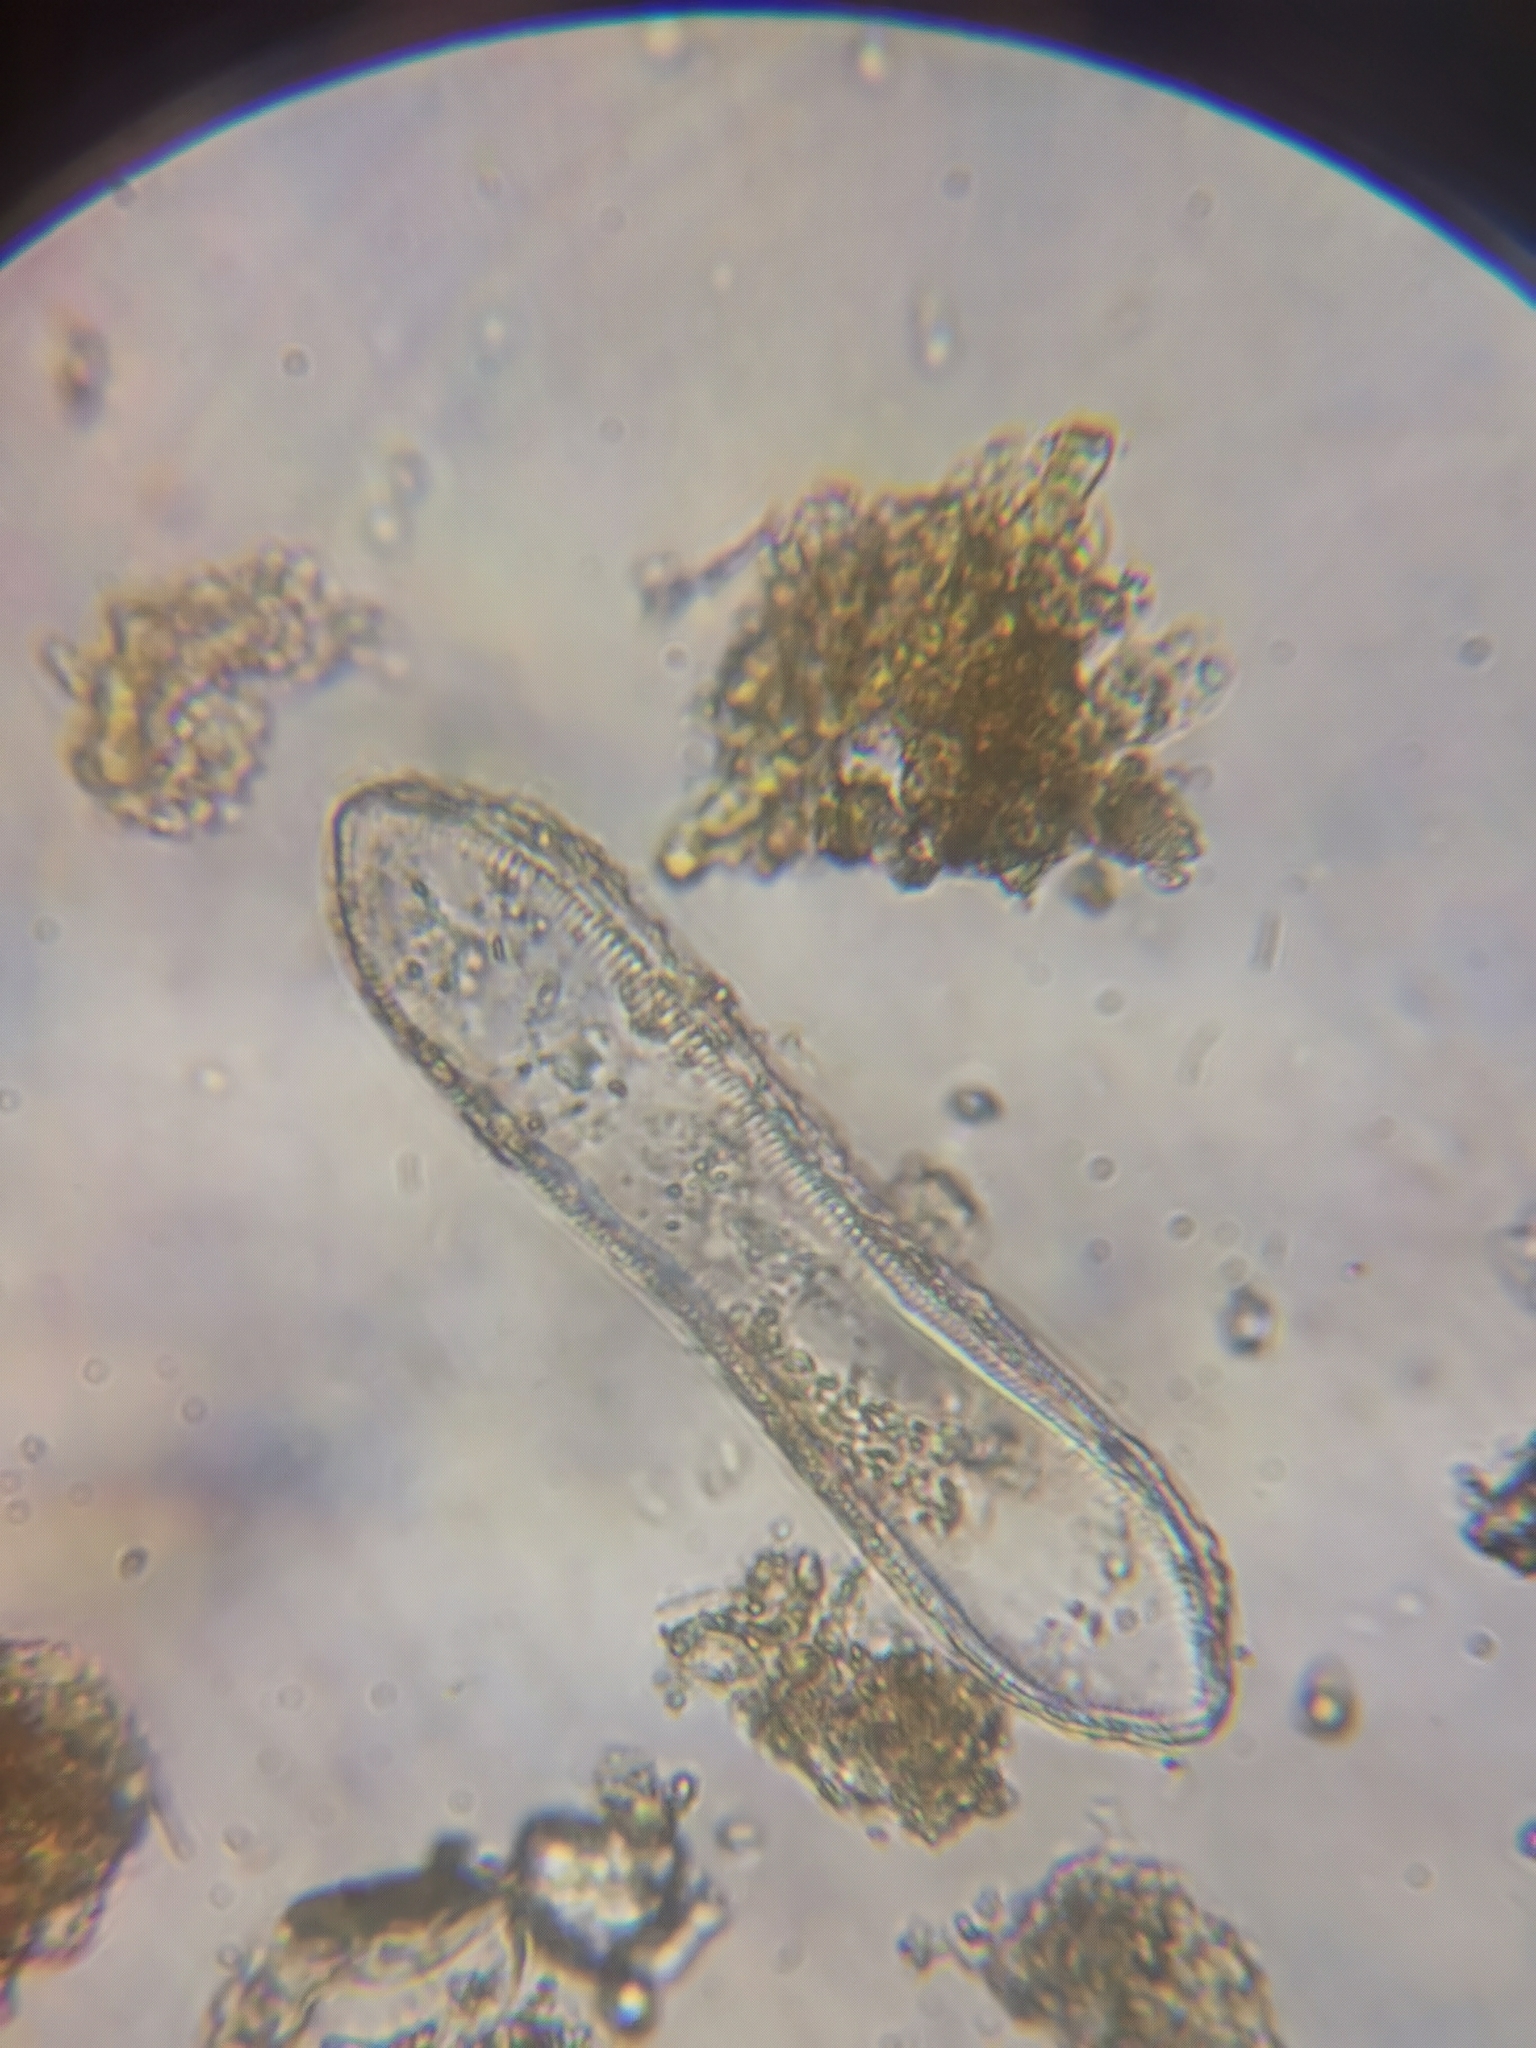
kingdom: Chromista
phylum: Ochrophyta
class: Bacillariophyceae
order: Surirellales
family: Surirellaceae
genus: Surirella
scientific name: Surirella librile
